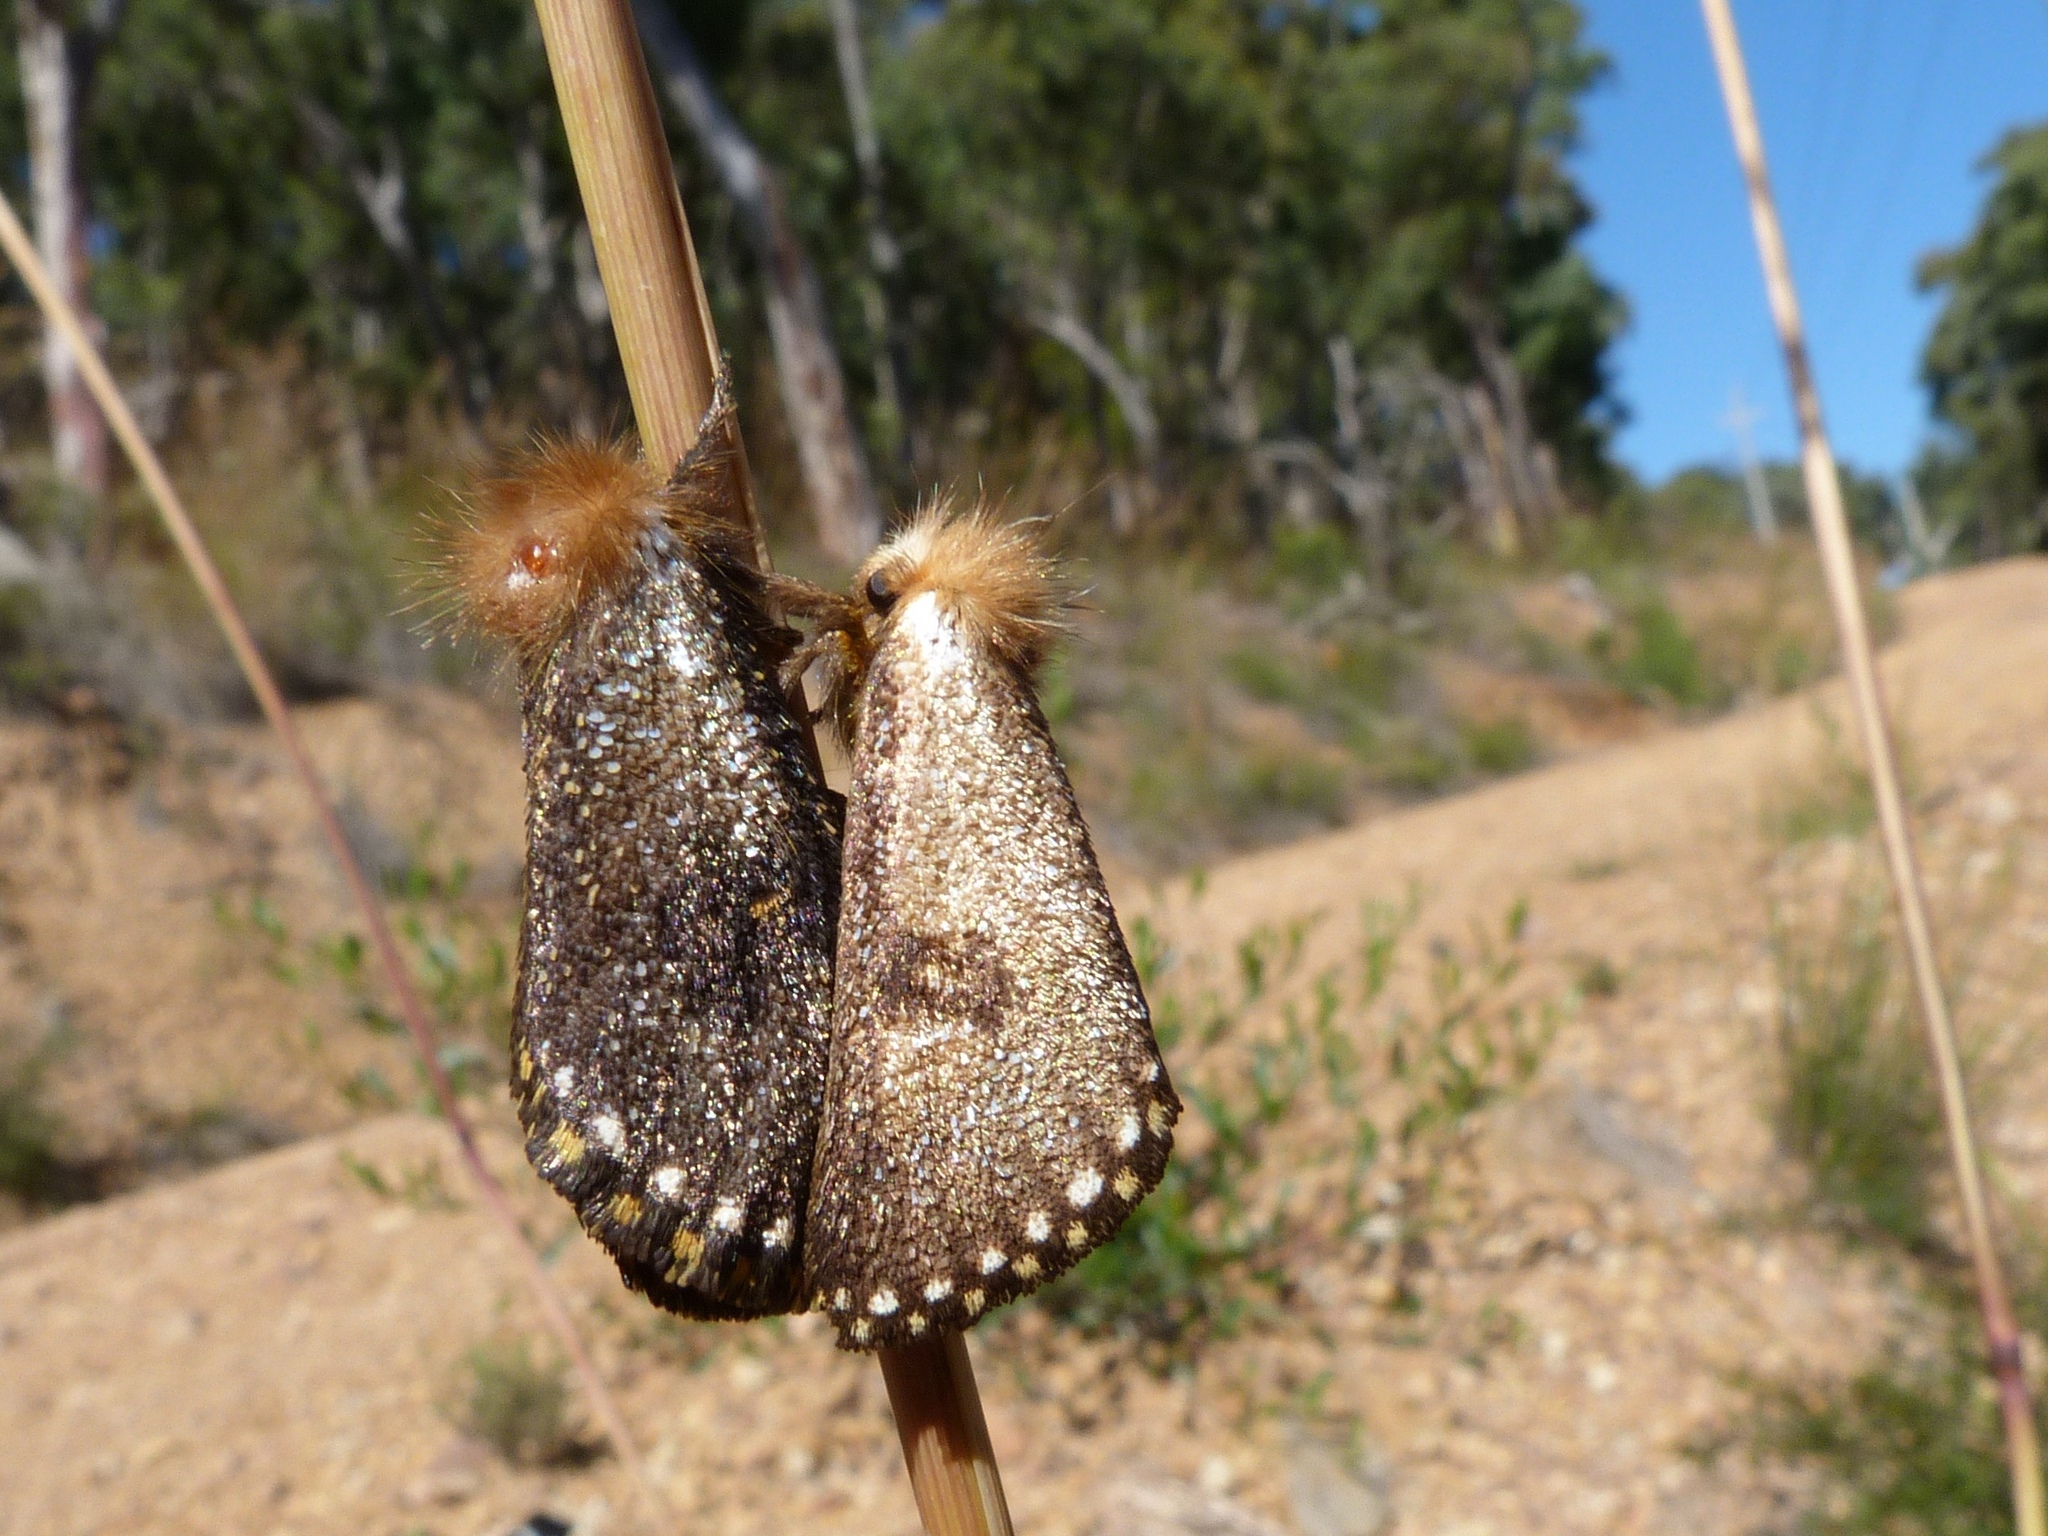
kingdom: Animalia
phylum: Arthropoda
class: Insecta
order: Lepidoptera
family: Notodontidae
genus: Epicoma
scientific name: Epicoma contristis
